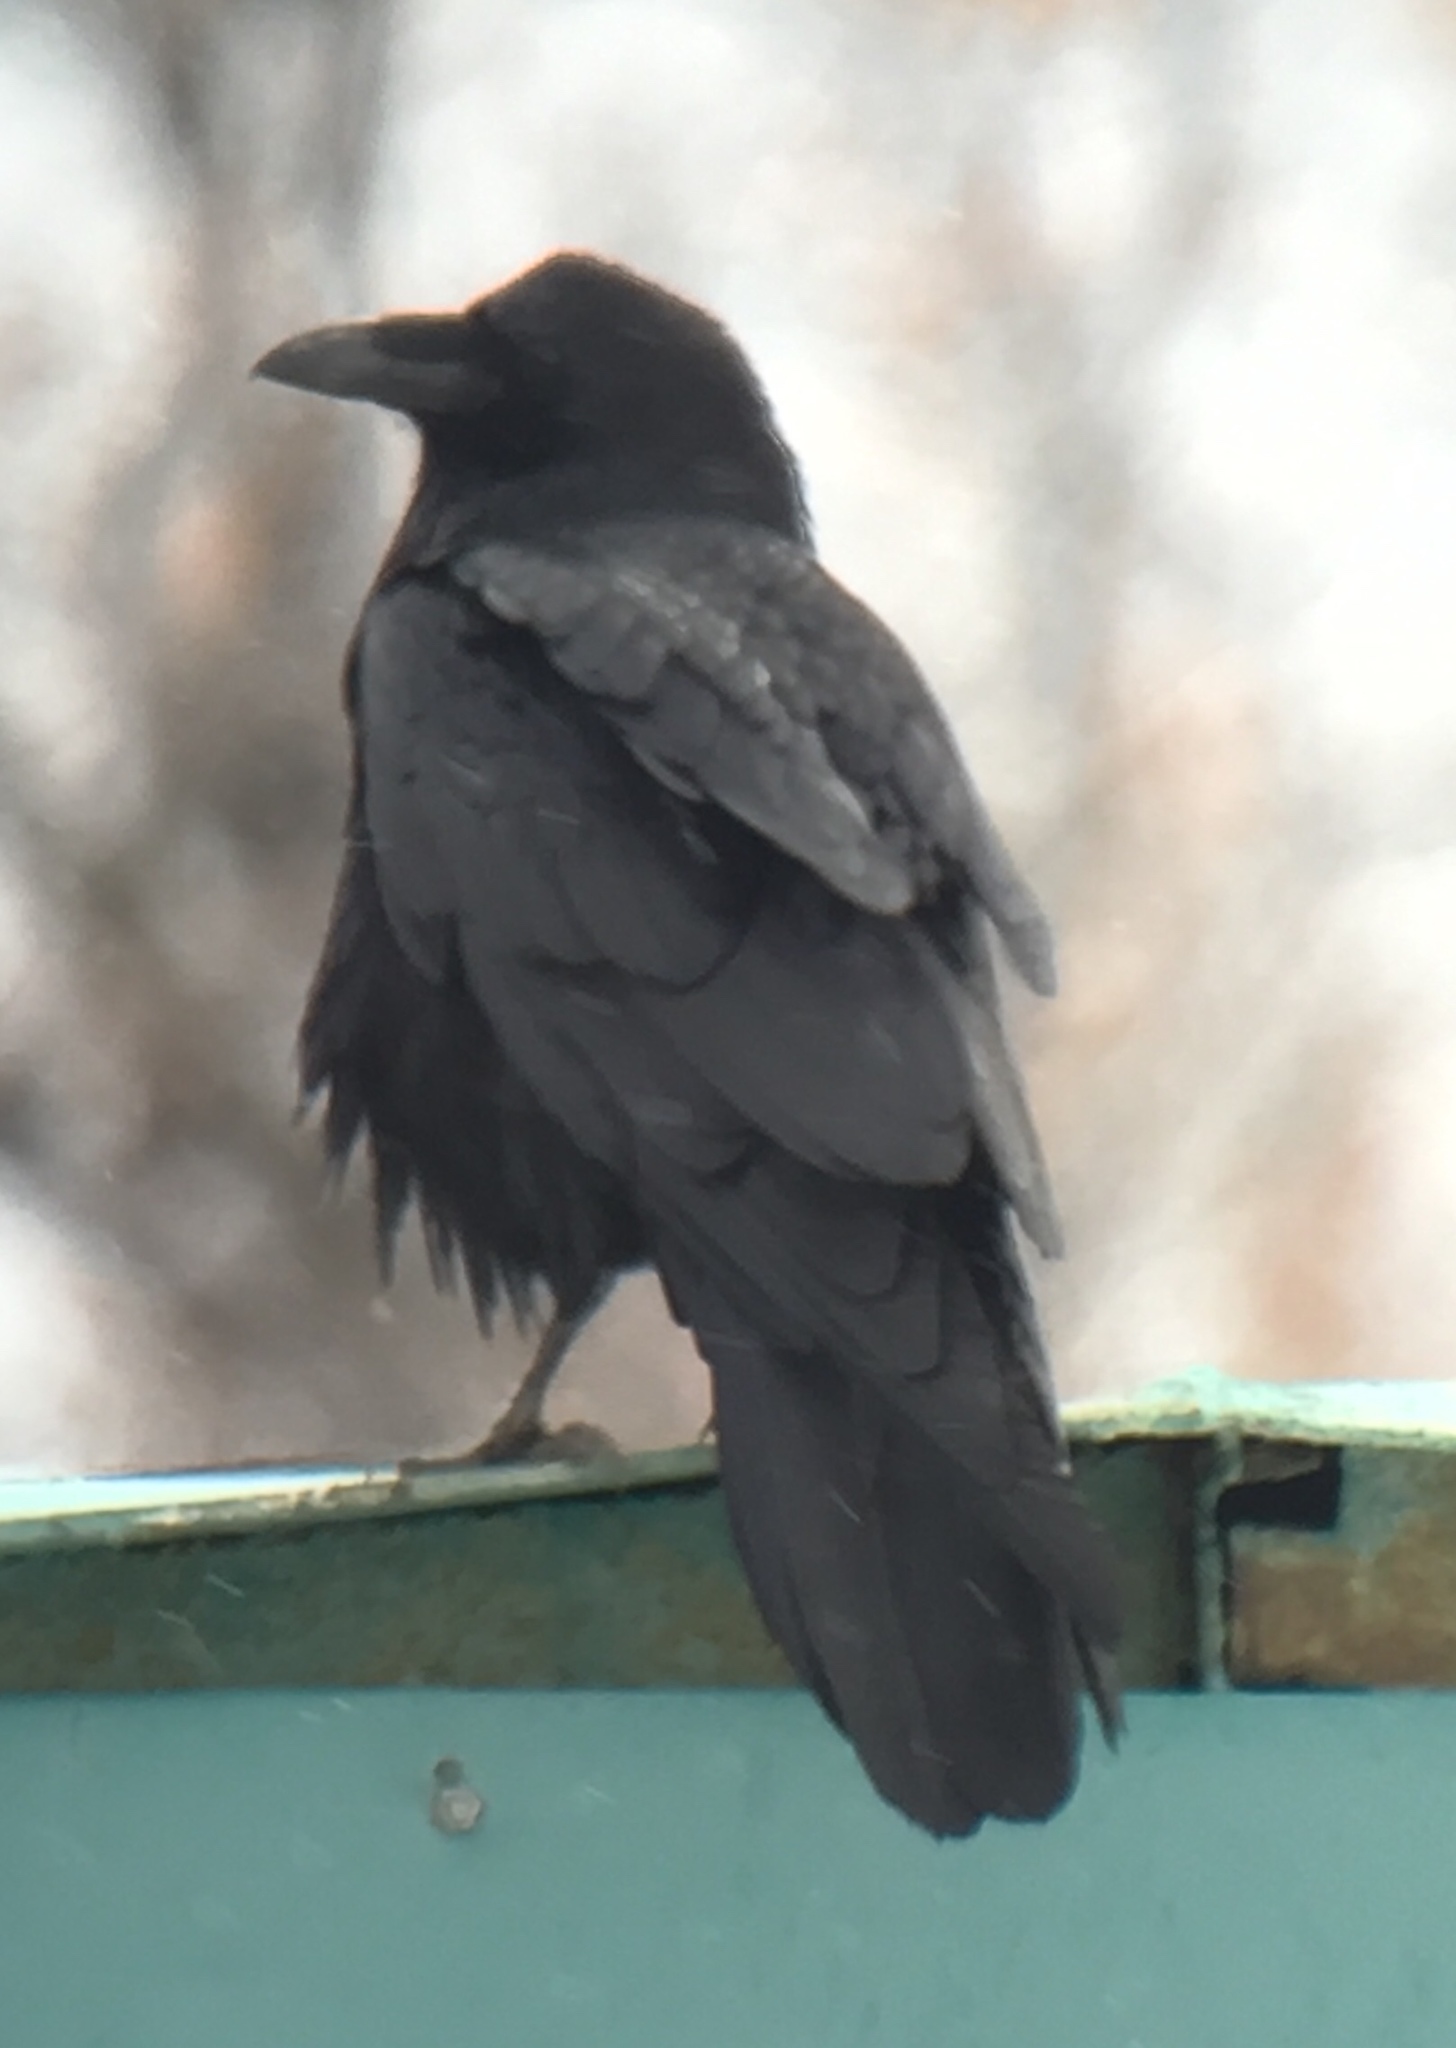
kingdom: Animalia
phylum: Chordata
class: Aves
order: Passeriformes
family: Corvidae
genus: Corvus
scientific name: Corvus corax
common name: Common raven
